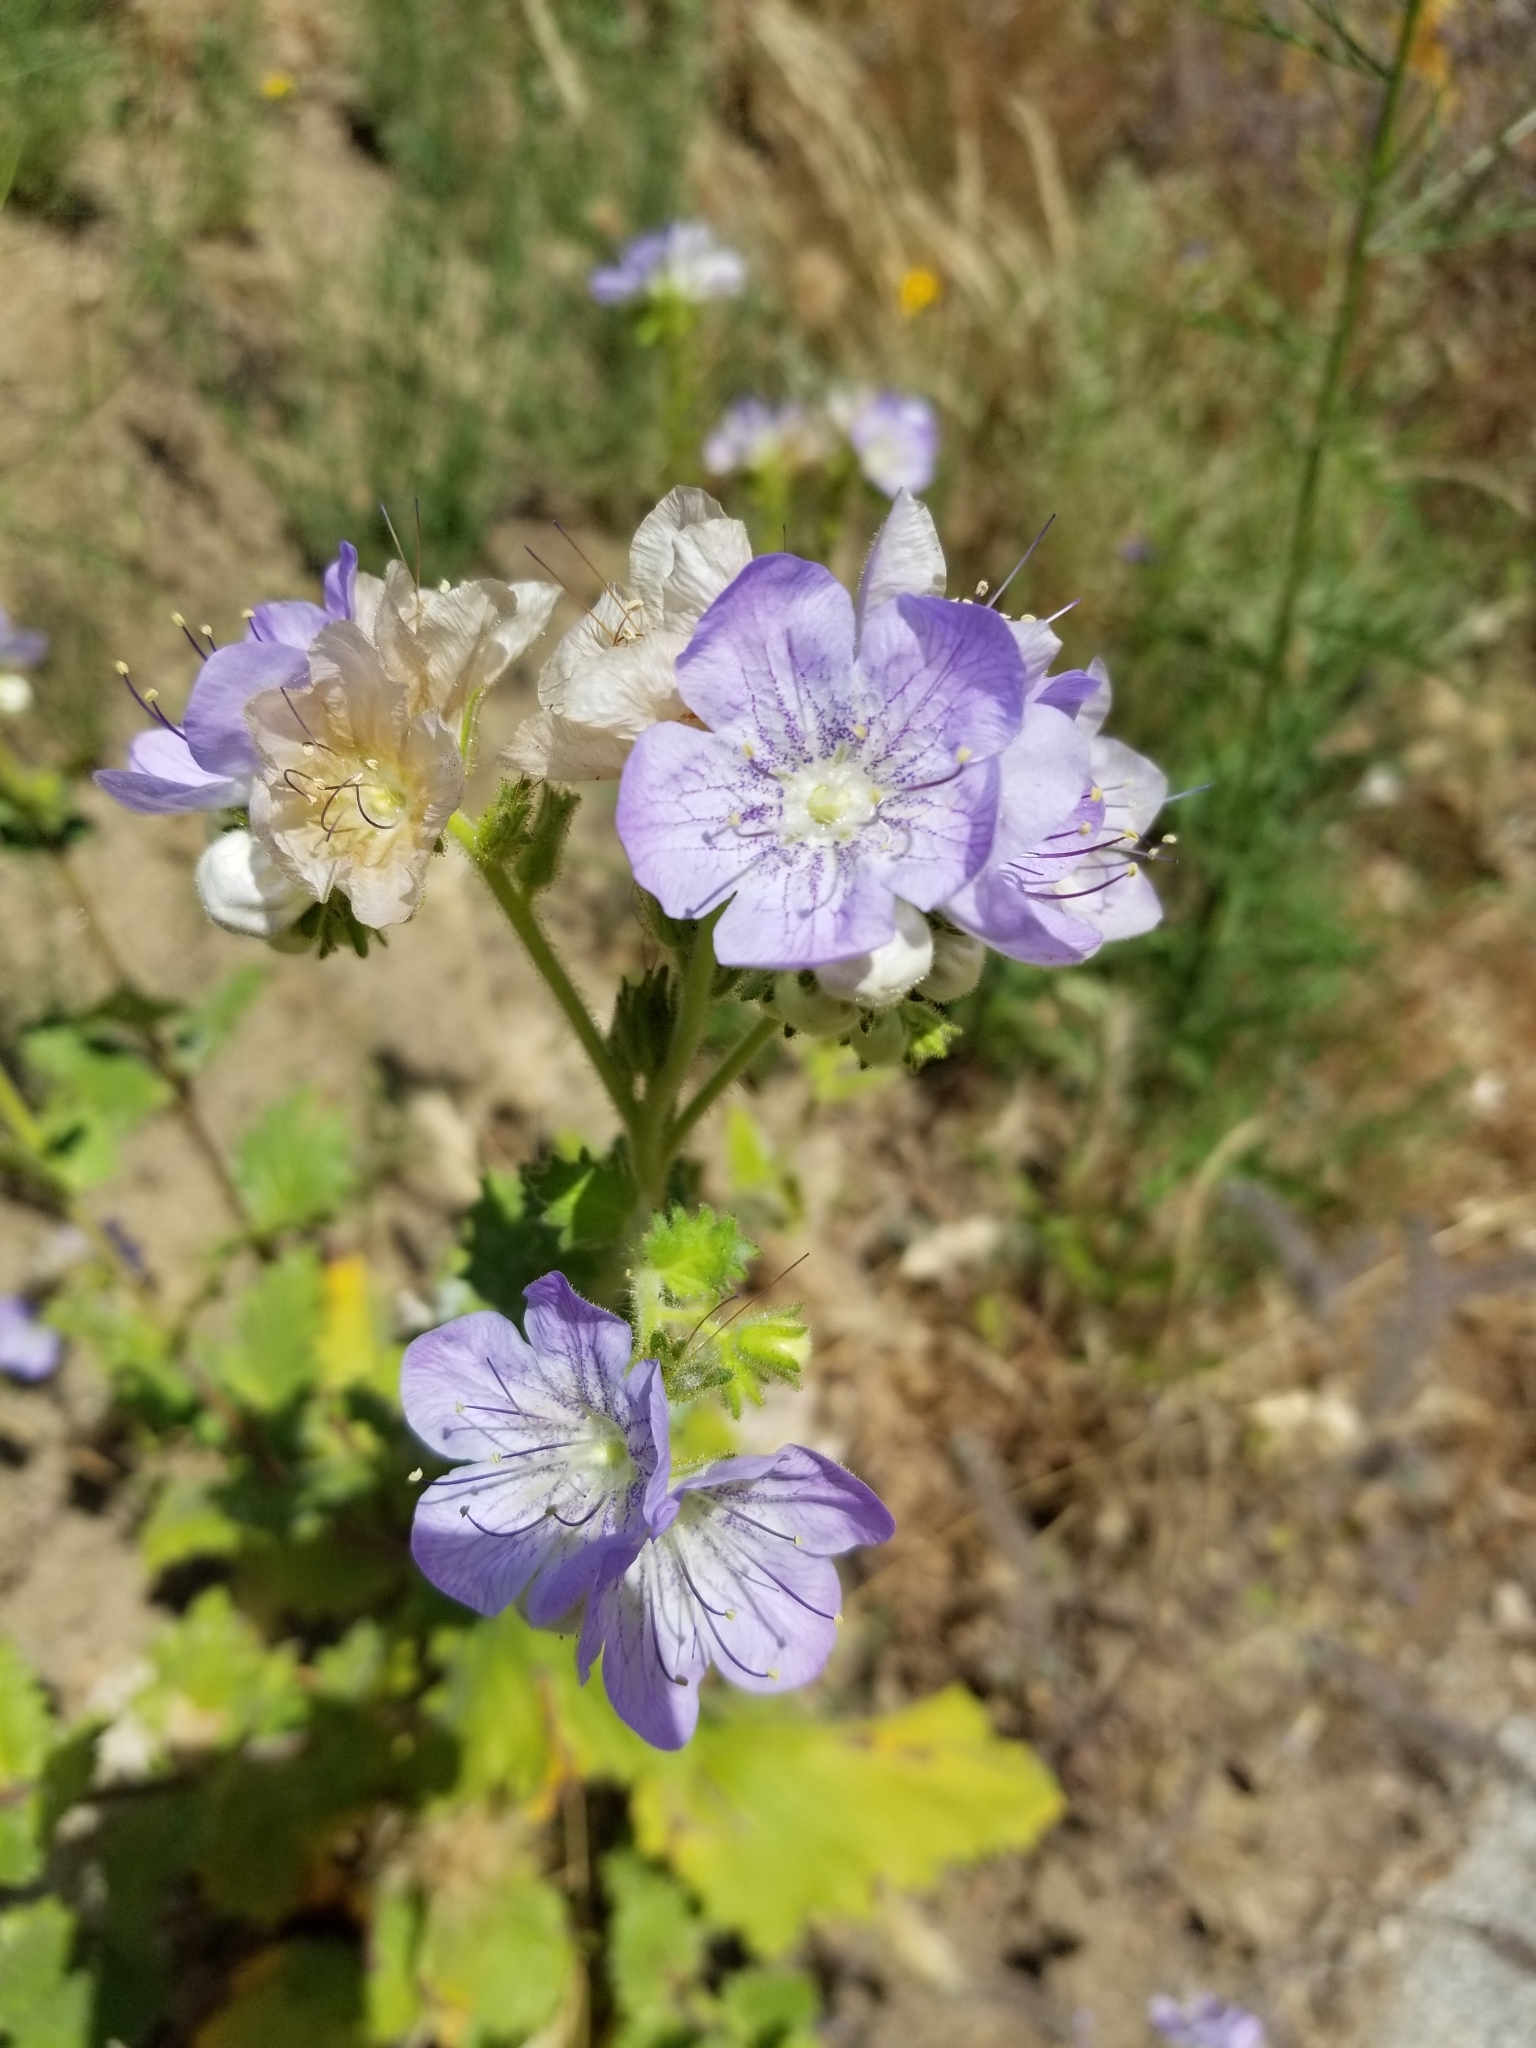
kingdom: Plantae
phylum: Tracheophyta
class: Magnoliopsida
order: Boraginales
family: Hydrophyllaceae
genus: Phacelia
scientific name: Phacelia grandiflora
